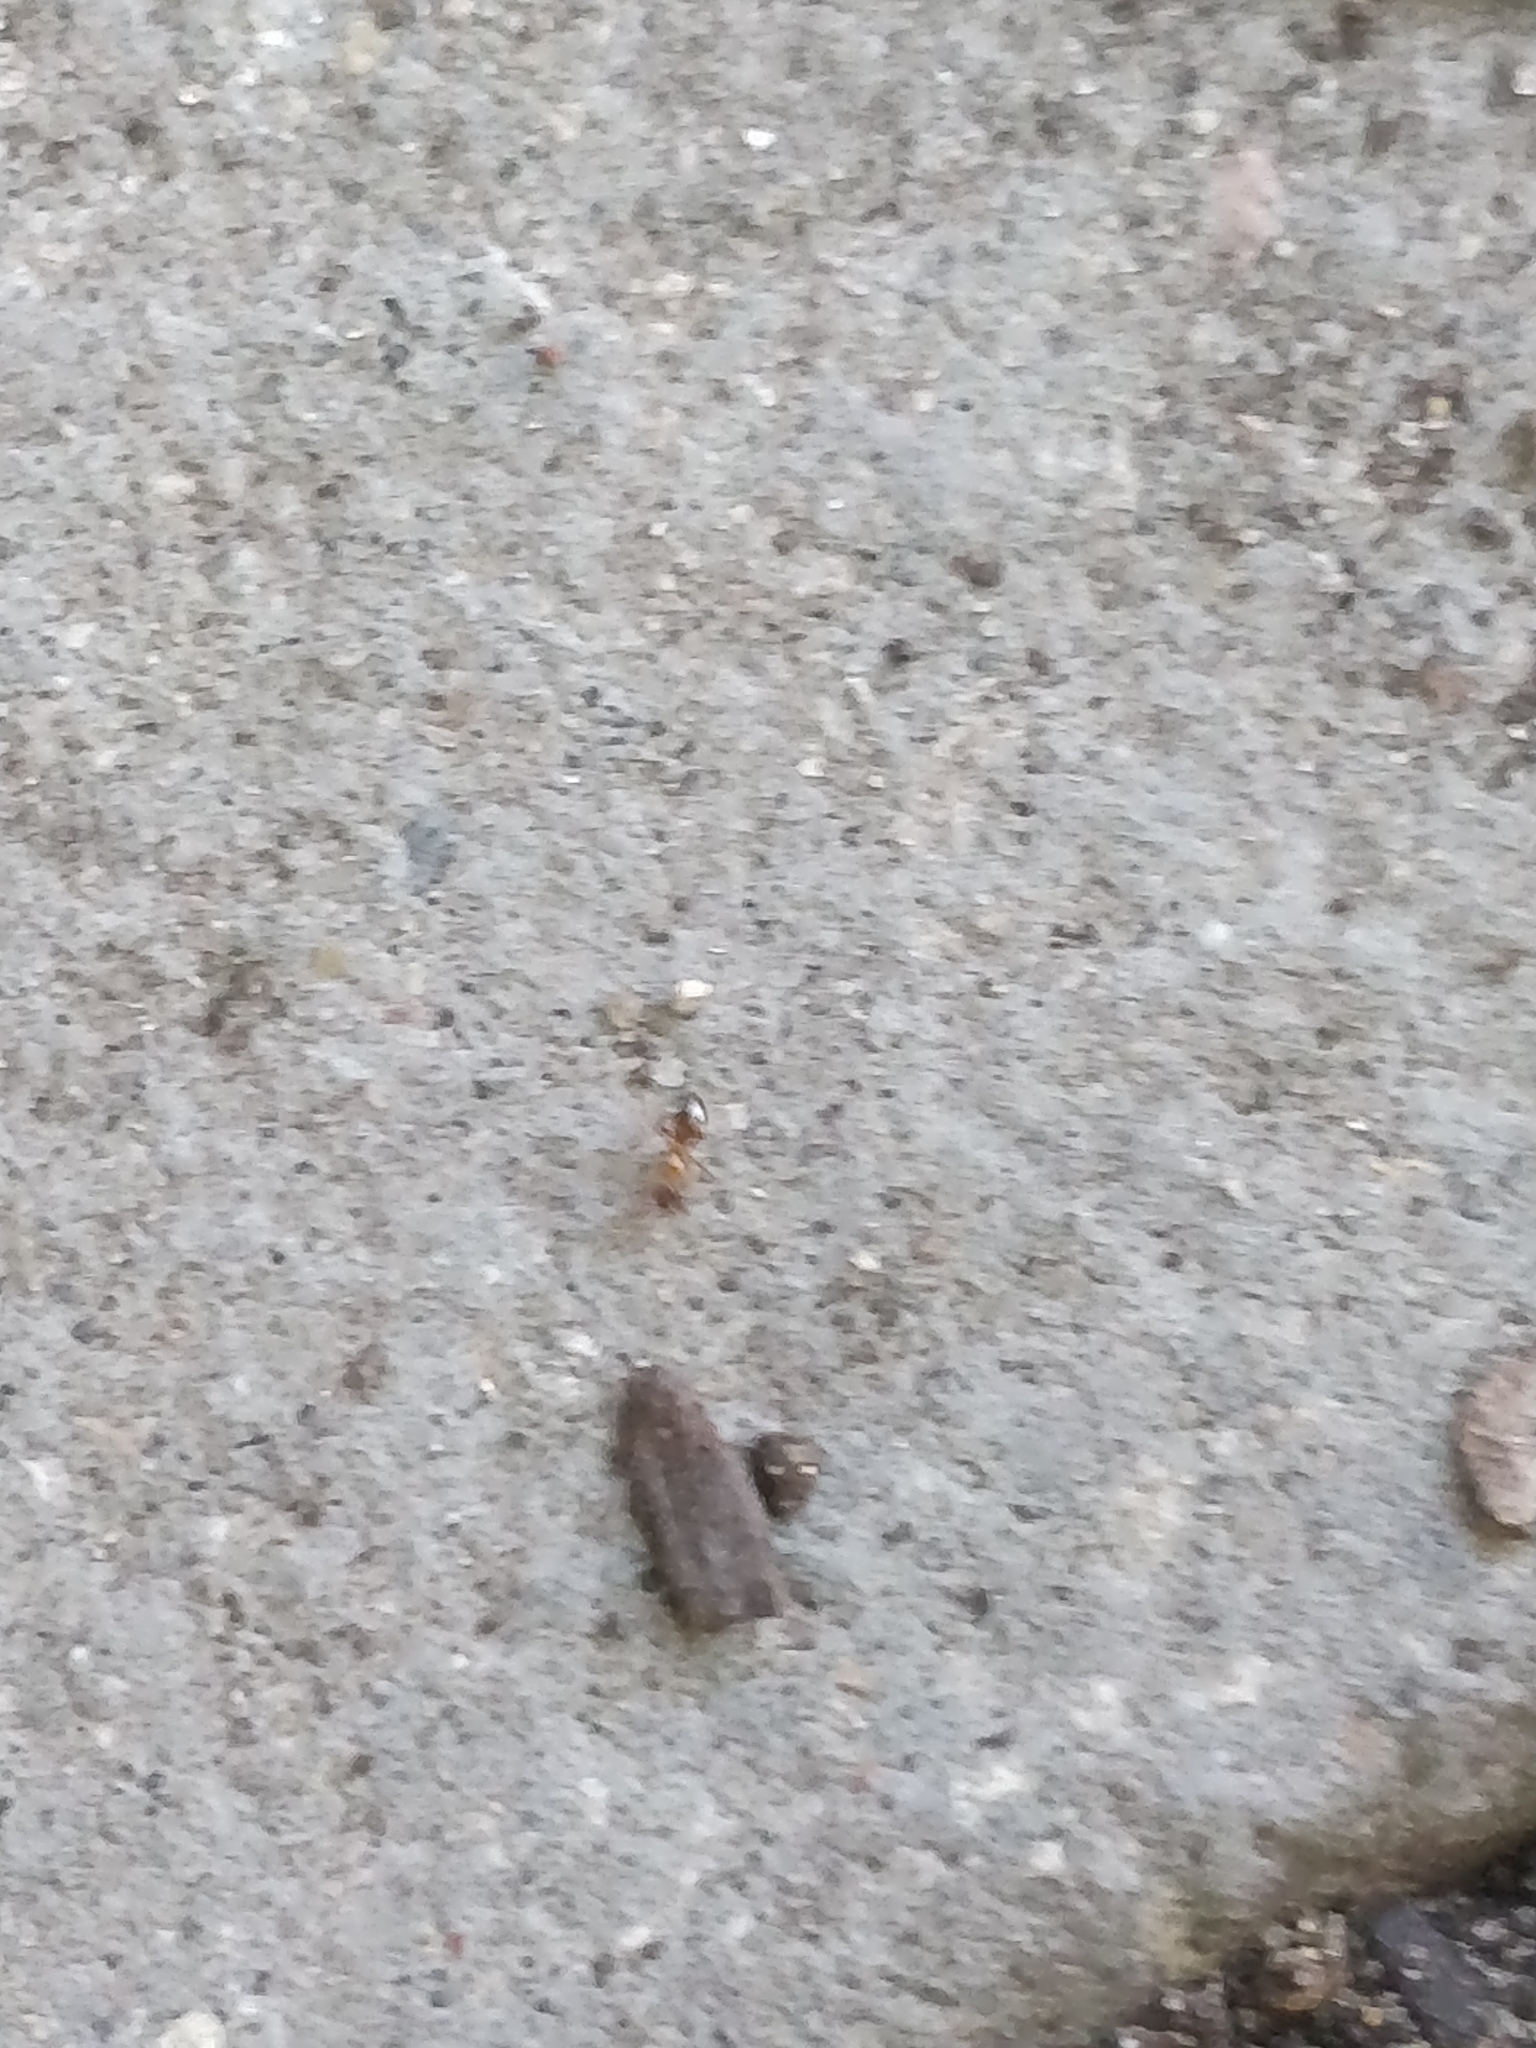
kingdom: Animalia
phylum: Arthropoda
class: Insecta
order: Hymenoptera
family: Formicidae
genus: Paratrechina
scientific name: Paratrechina flavipes
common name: Eastern asian formicine ant
